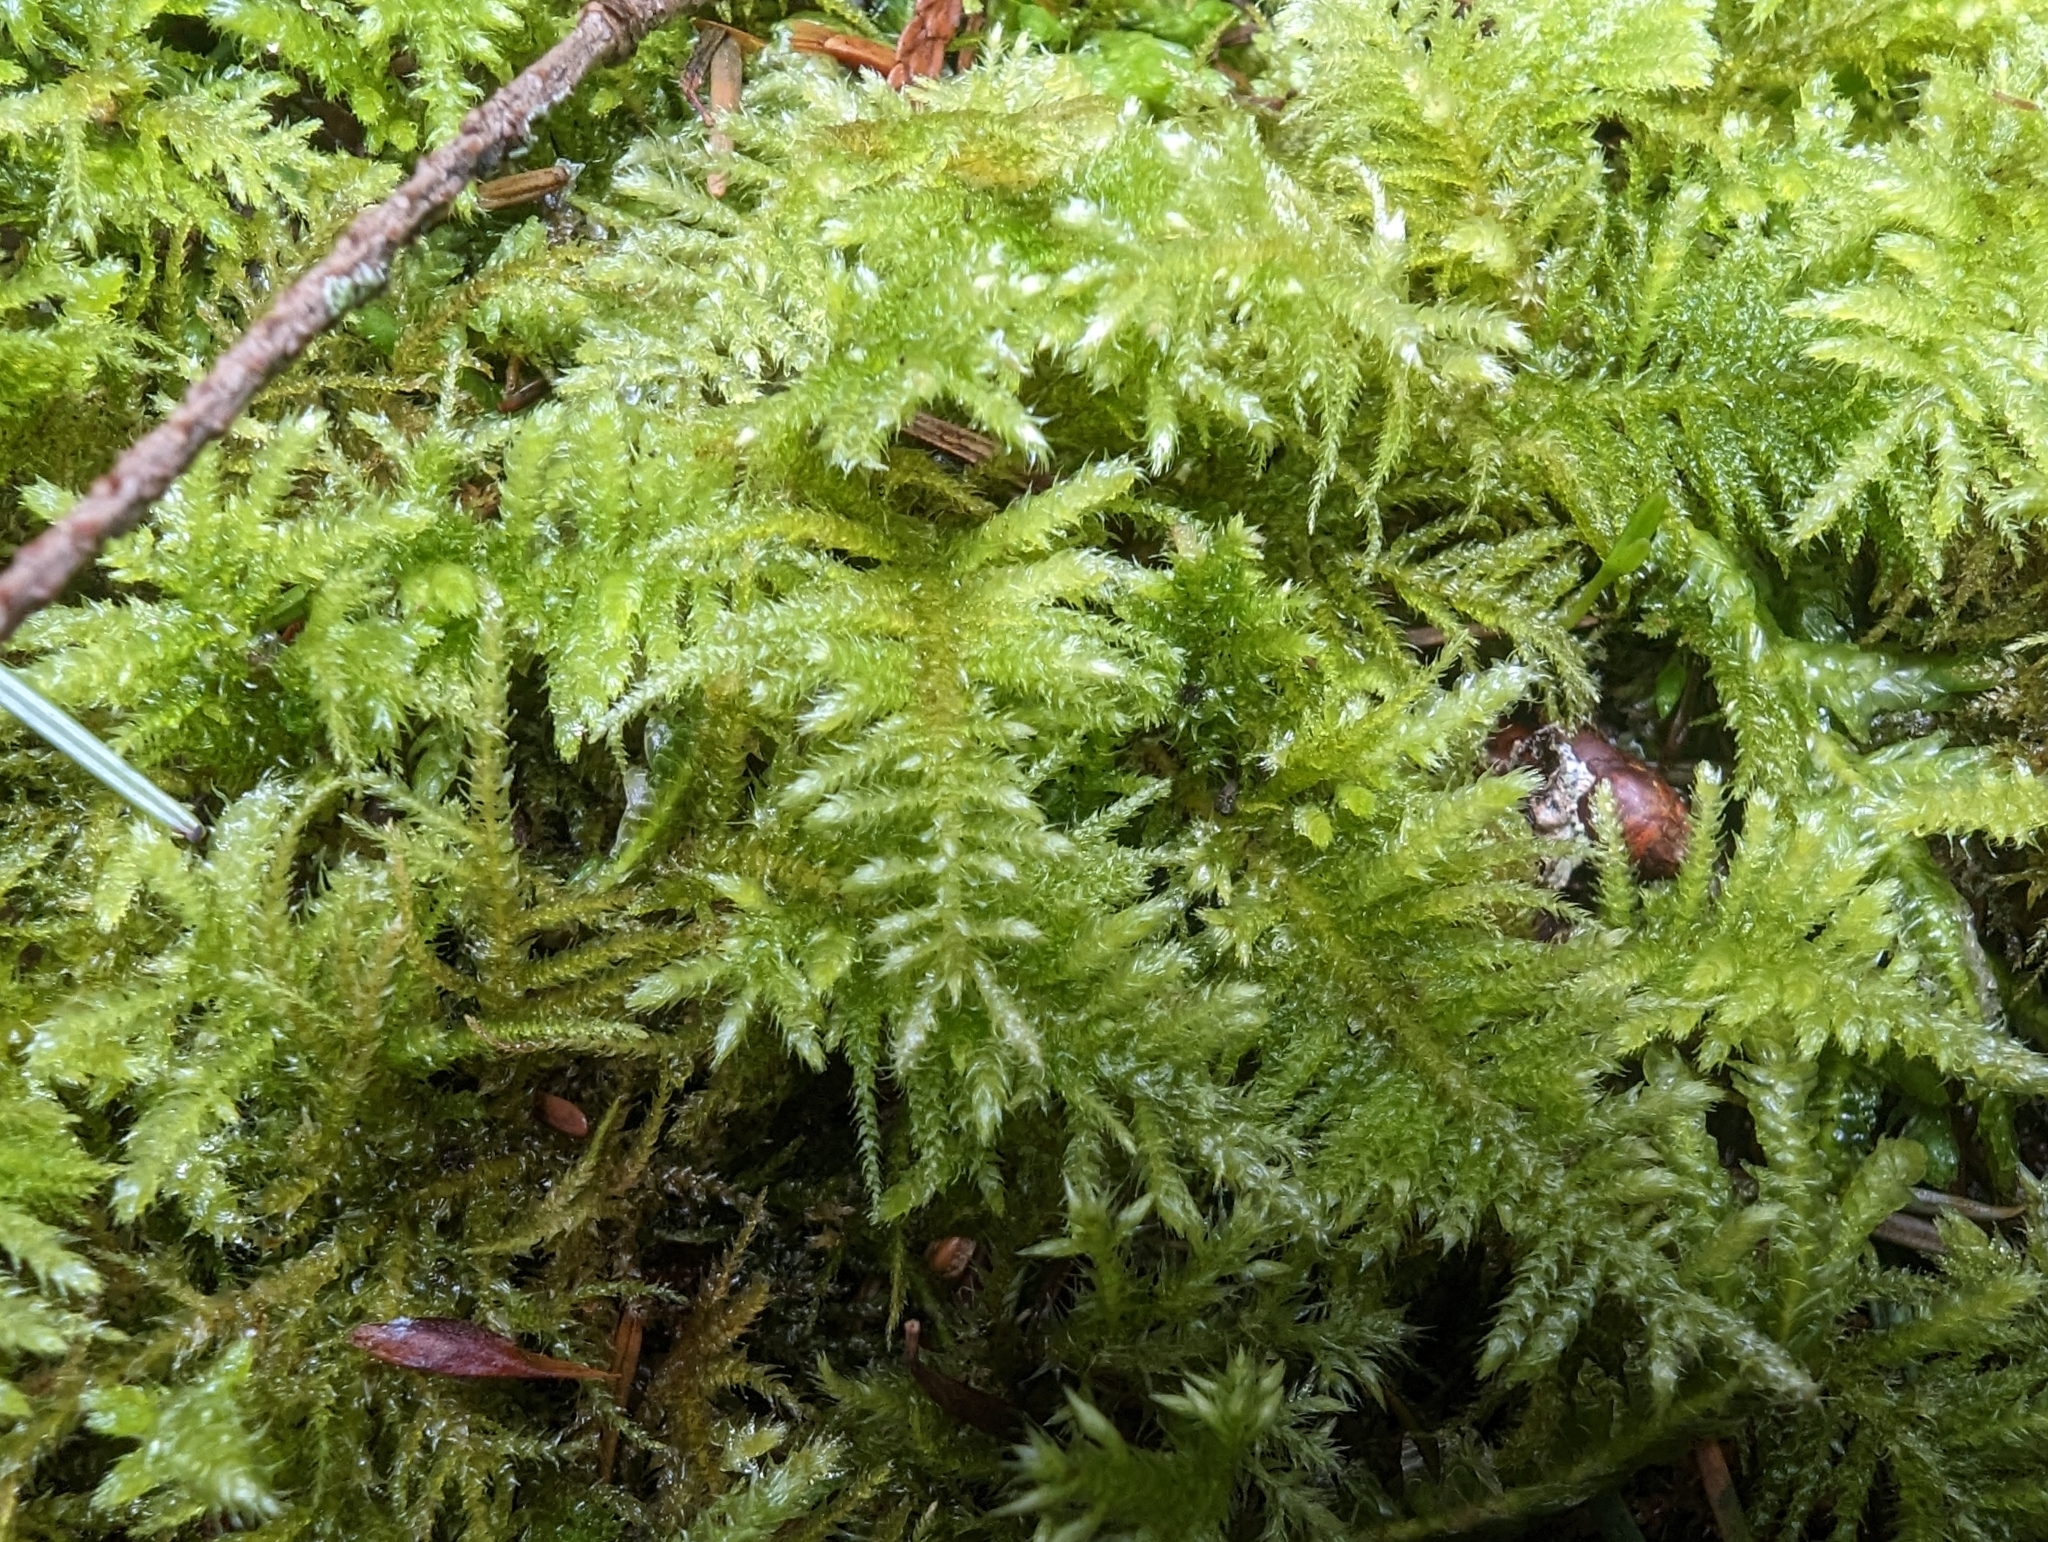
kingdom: Plantae
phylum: Bryophyta
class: Bryopsida
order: Hypnales
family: Brachytheciaceae
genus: Kindbergia
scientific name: Kindbergia oregana
